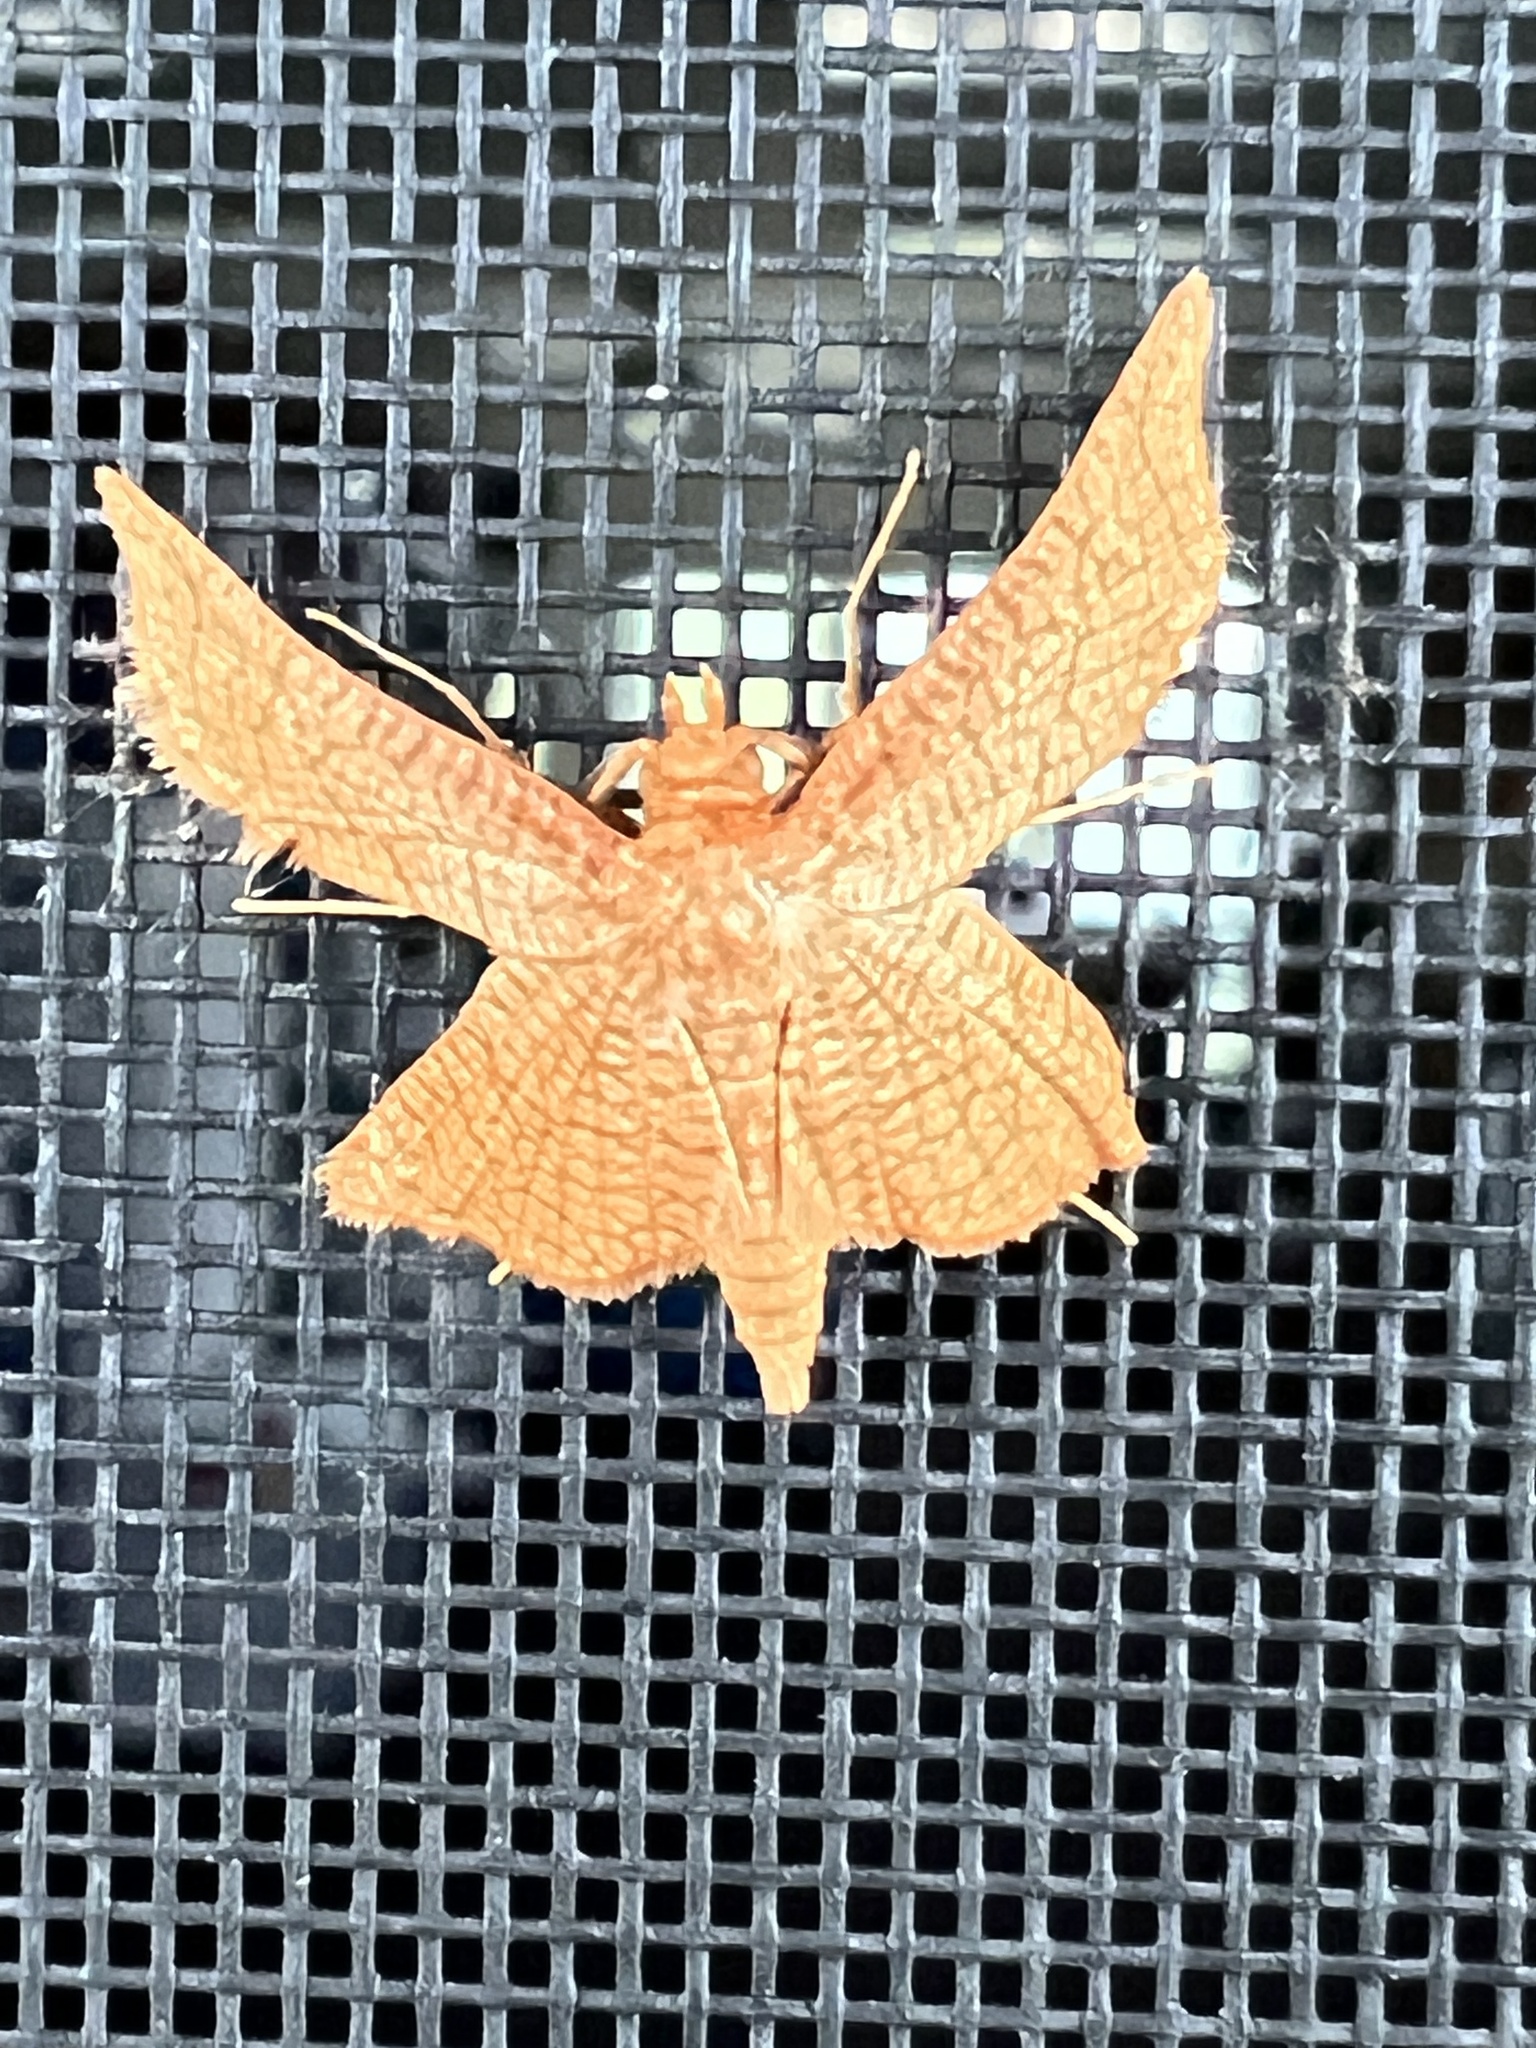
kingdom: Animalia
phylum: Arthropoda
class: Insecta
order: Lepidoptera
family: Thyrididae
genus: Hexeris
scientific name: Hexeris enhydris
